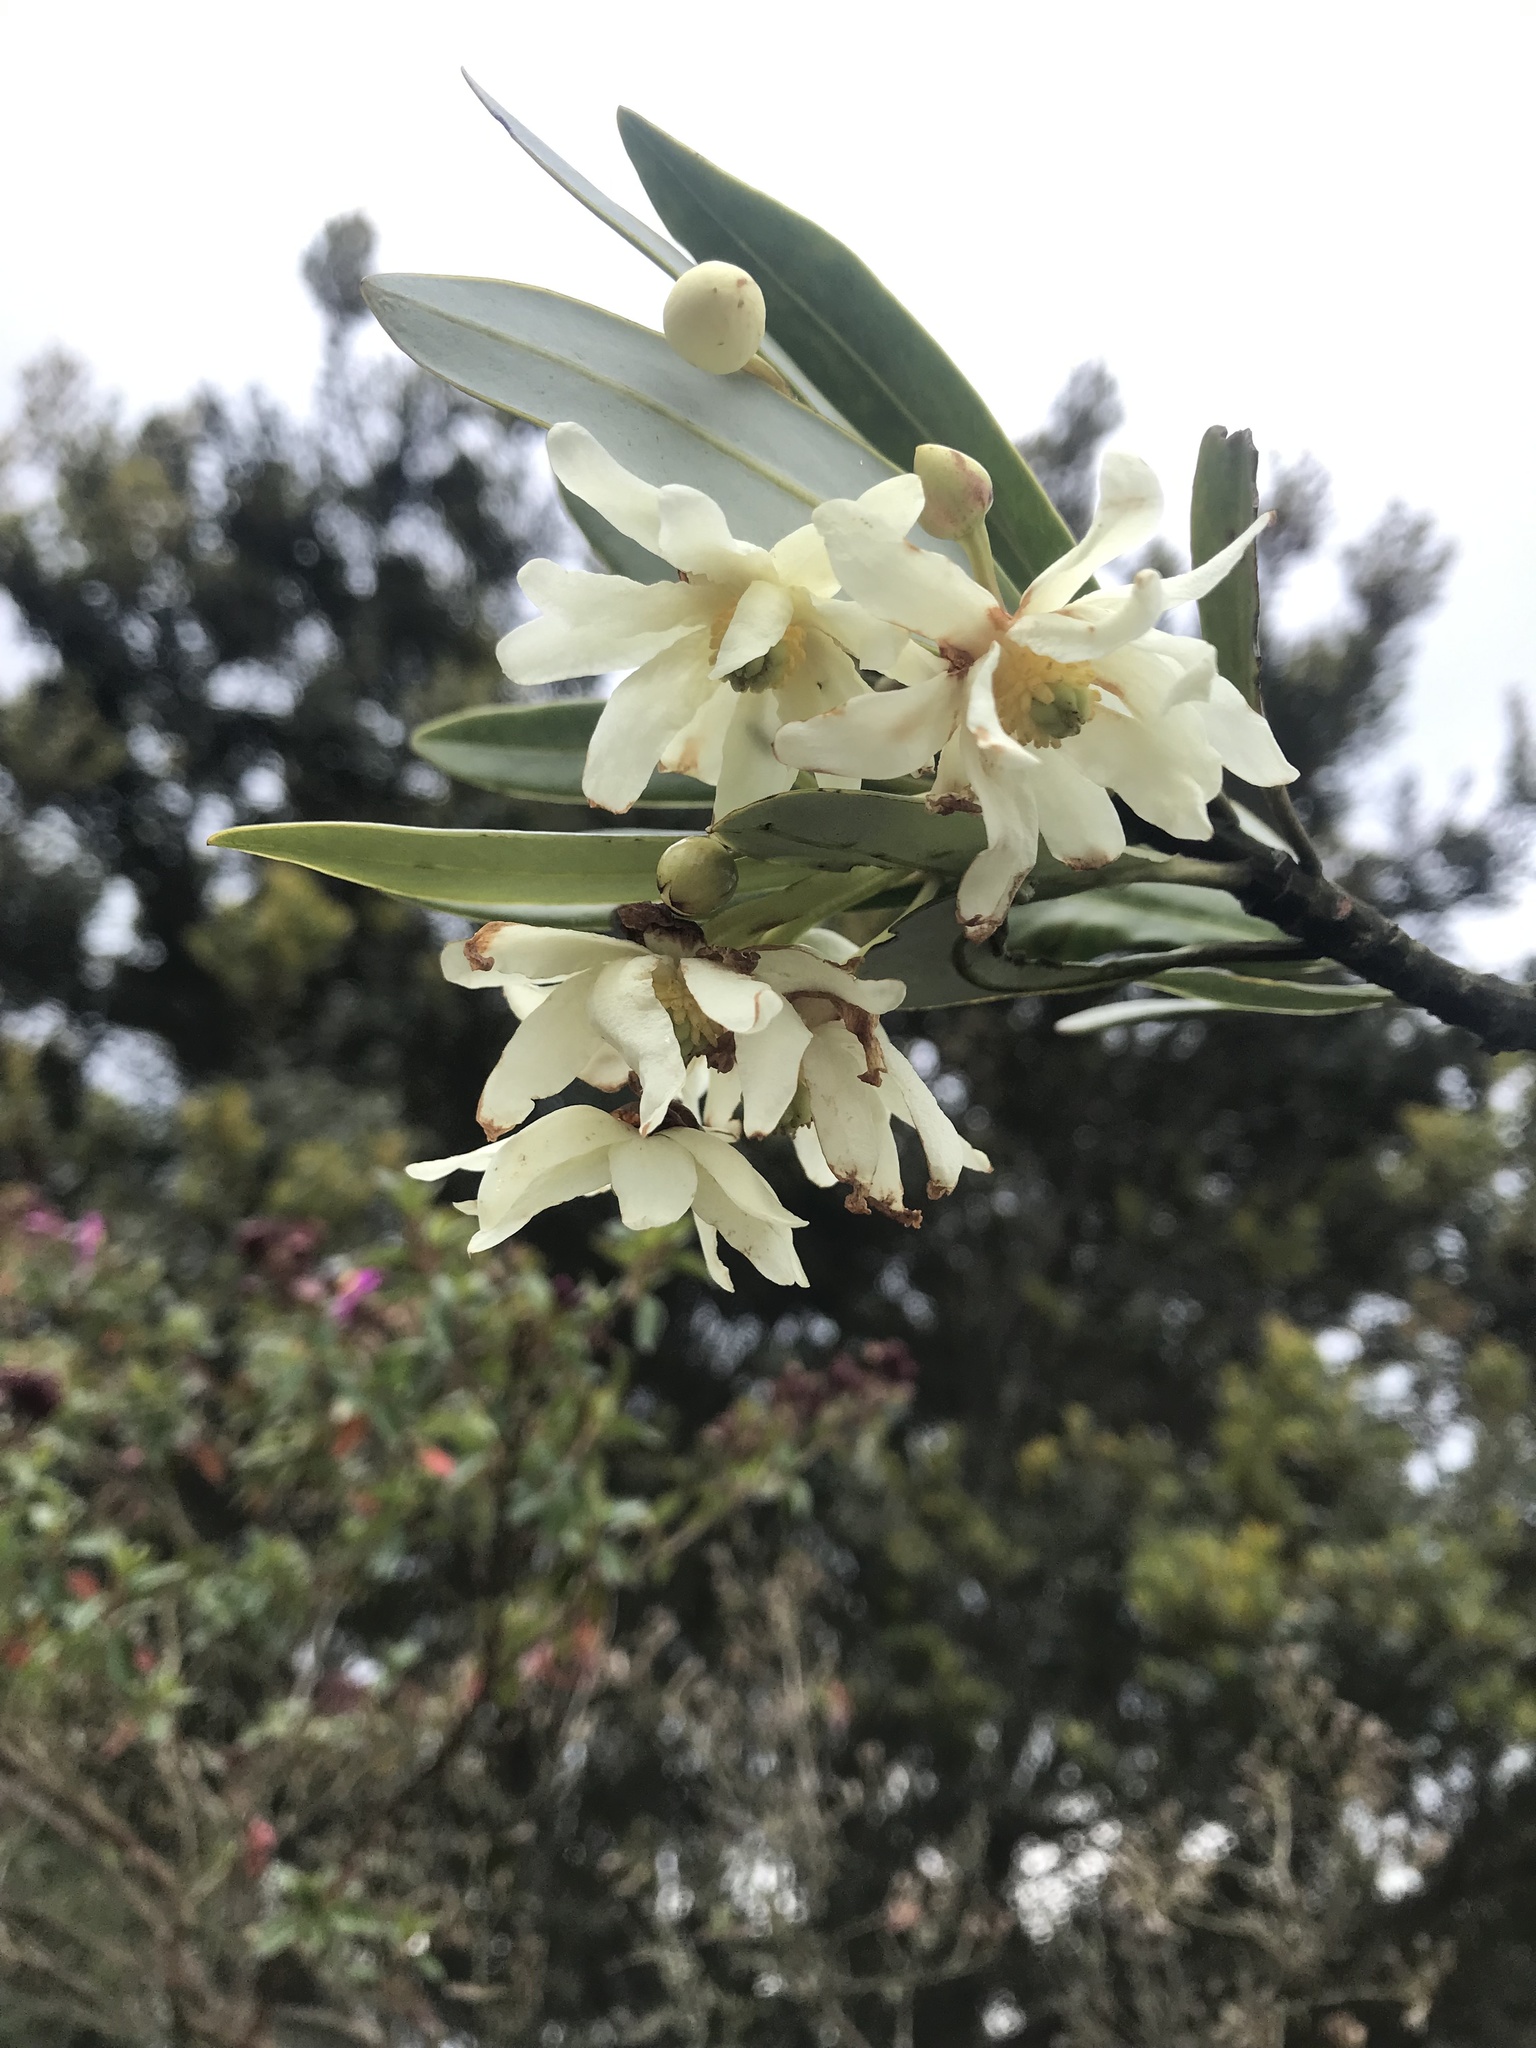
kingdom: Plantae
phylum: Tracheophyta
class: Magnoliopsida
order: Canellales
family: Winteraceae
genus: Drimys
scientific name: Drimys granadensis
